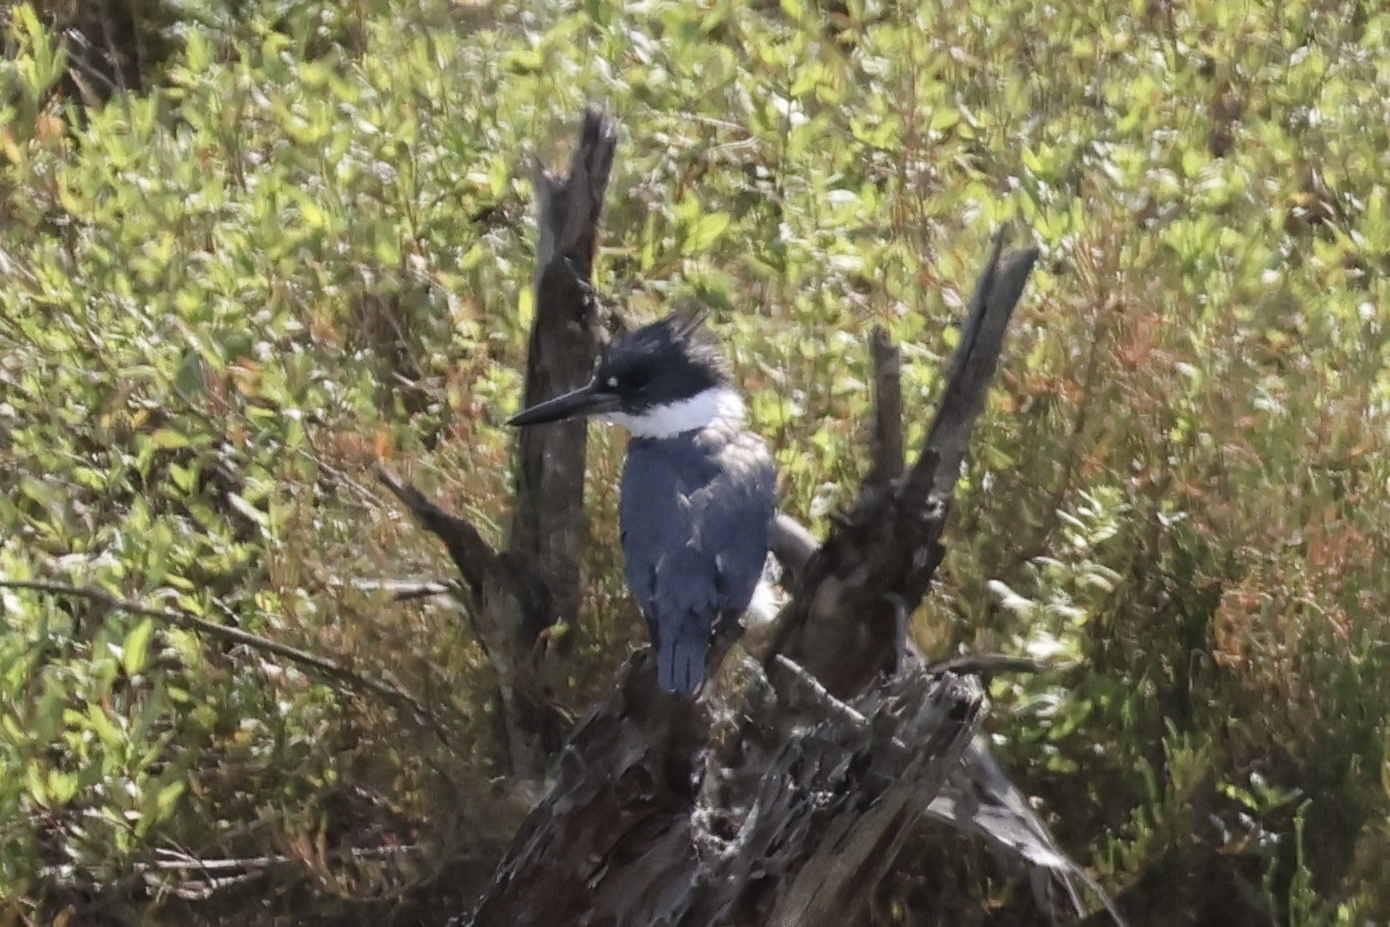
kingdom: Animalia
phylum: Chordata
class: Aves
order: Coraciiformes
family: Alcedinidae
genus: Megaceryle
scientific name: Megaceryle alcyon
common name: Belted kingfisher
